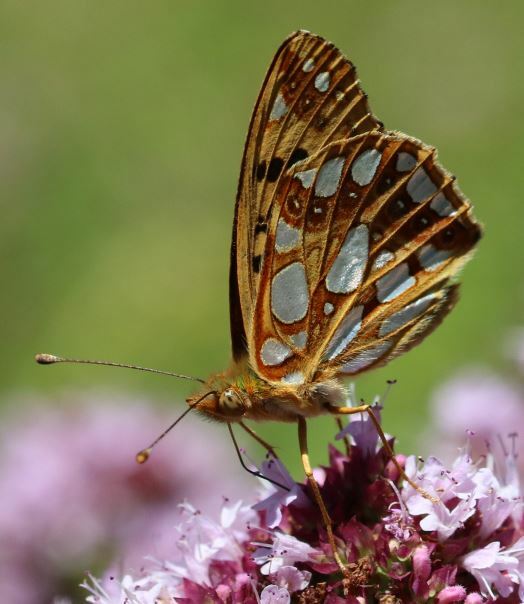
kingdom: Animalia
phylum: Arthropoda
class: Insecta
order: Lepidoptera
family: Nymphalidae
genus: Issoria
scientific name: Issoria lathonia
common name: Queen of spain fritillary
